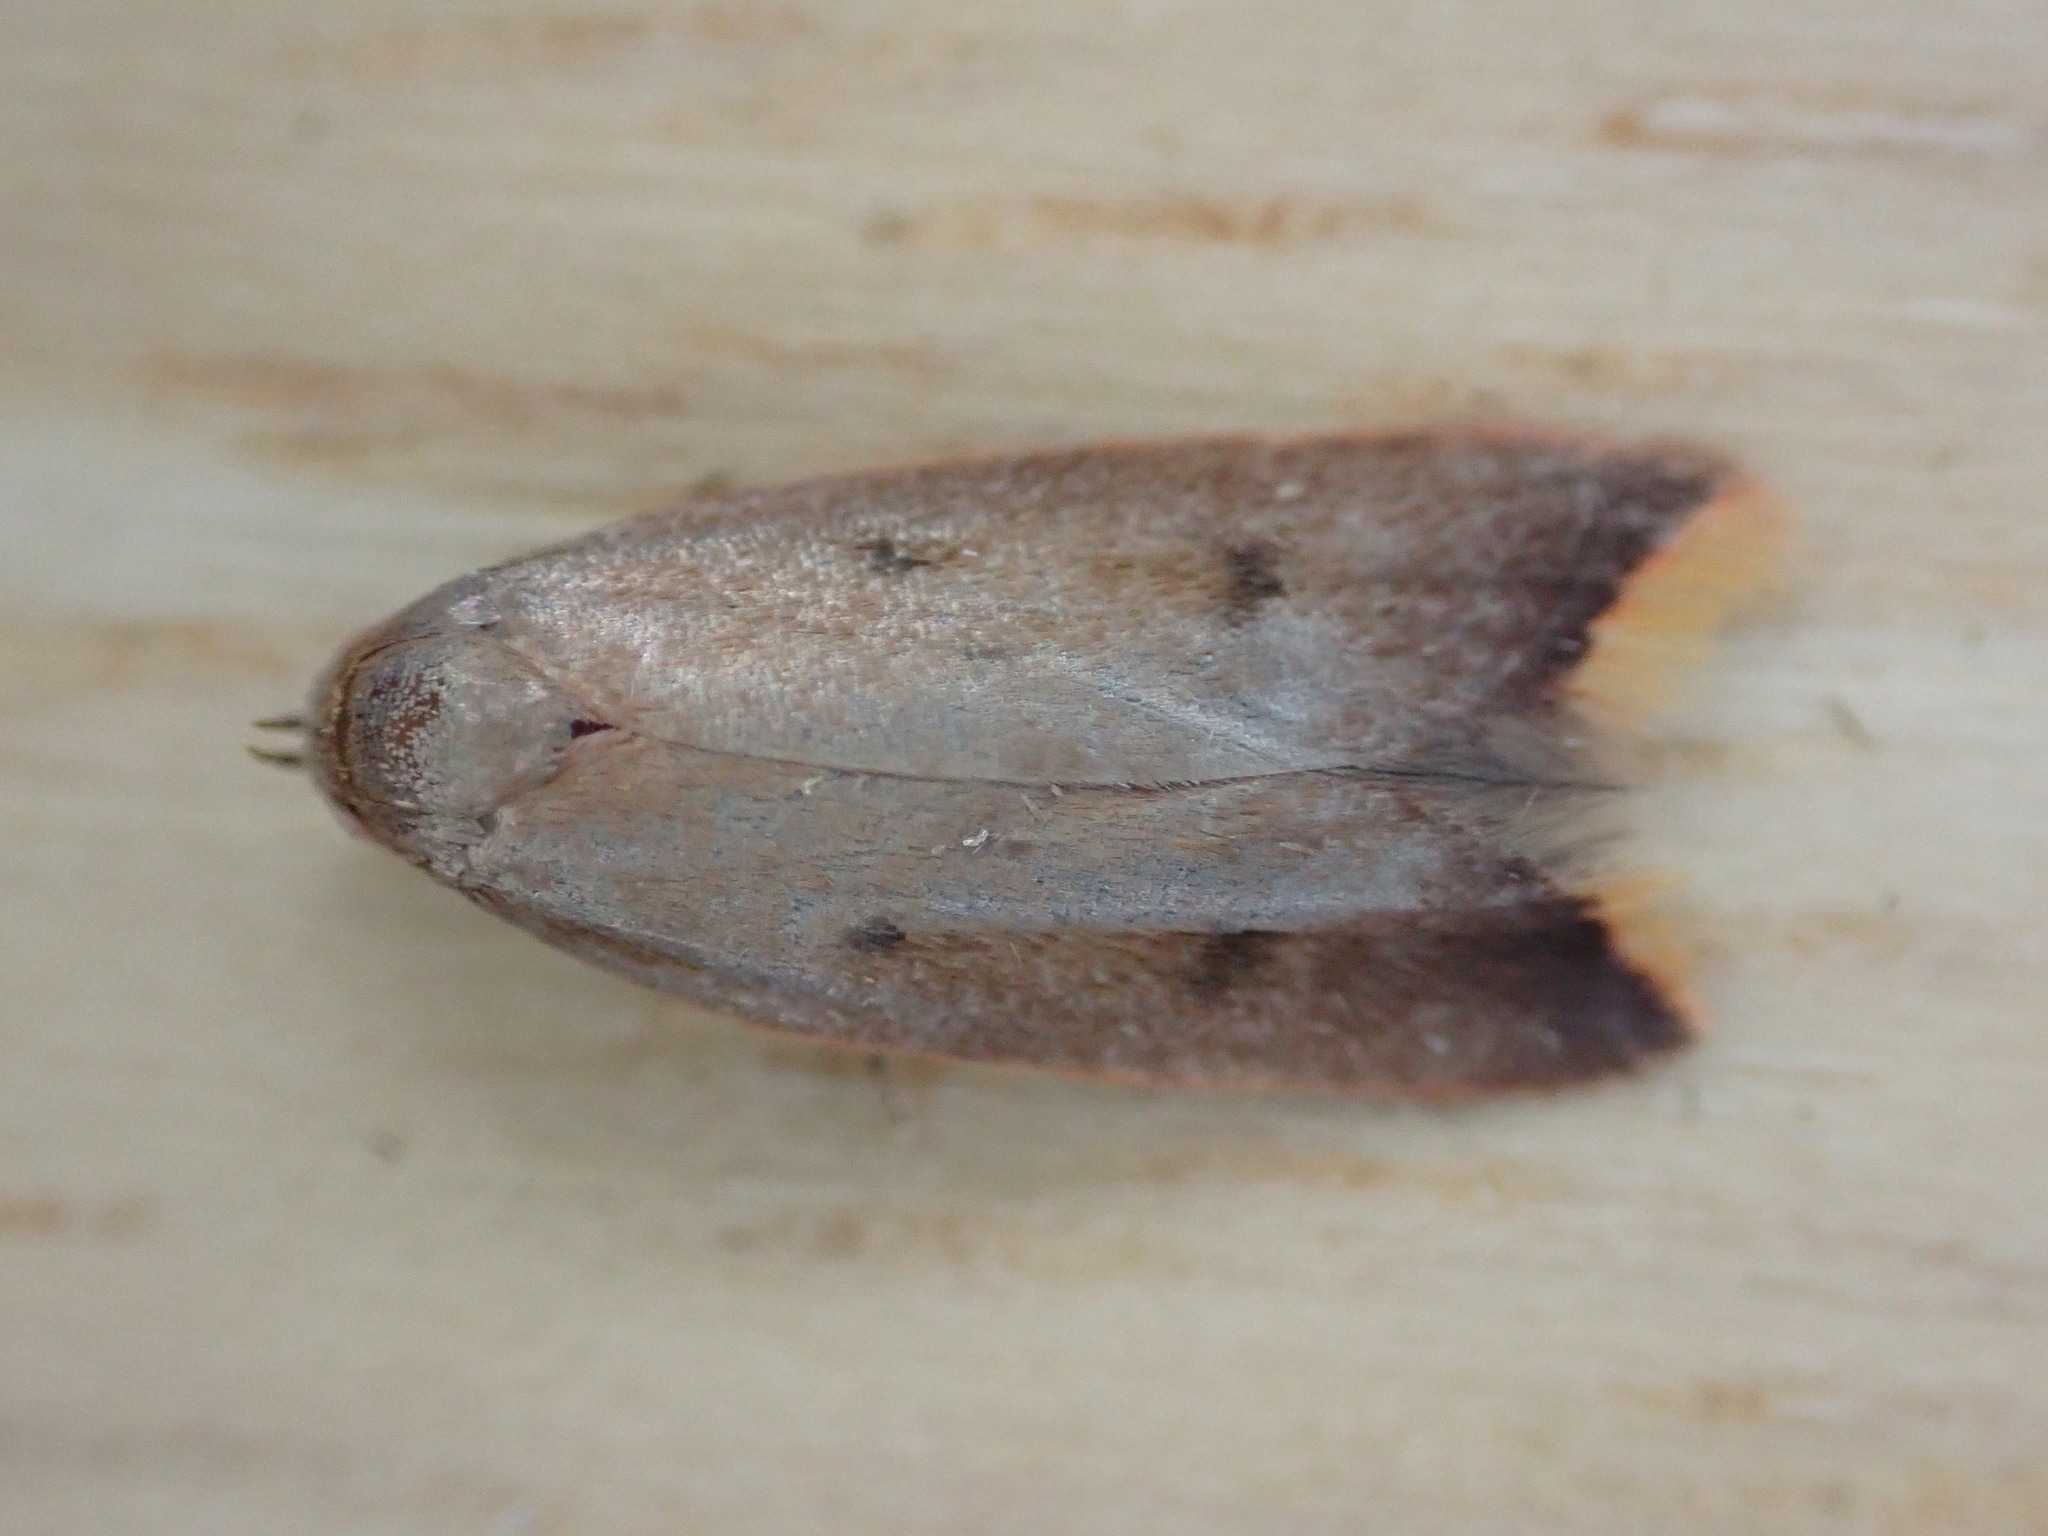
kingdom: Animalia
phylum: Arthropoda
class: Insecta
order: Lepidoptera
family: Oecophoridae
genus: Tachystola
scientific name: Tachystola acroxantha
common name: Ruddy streak
